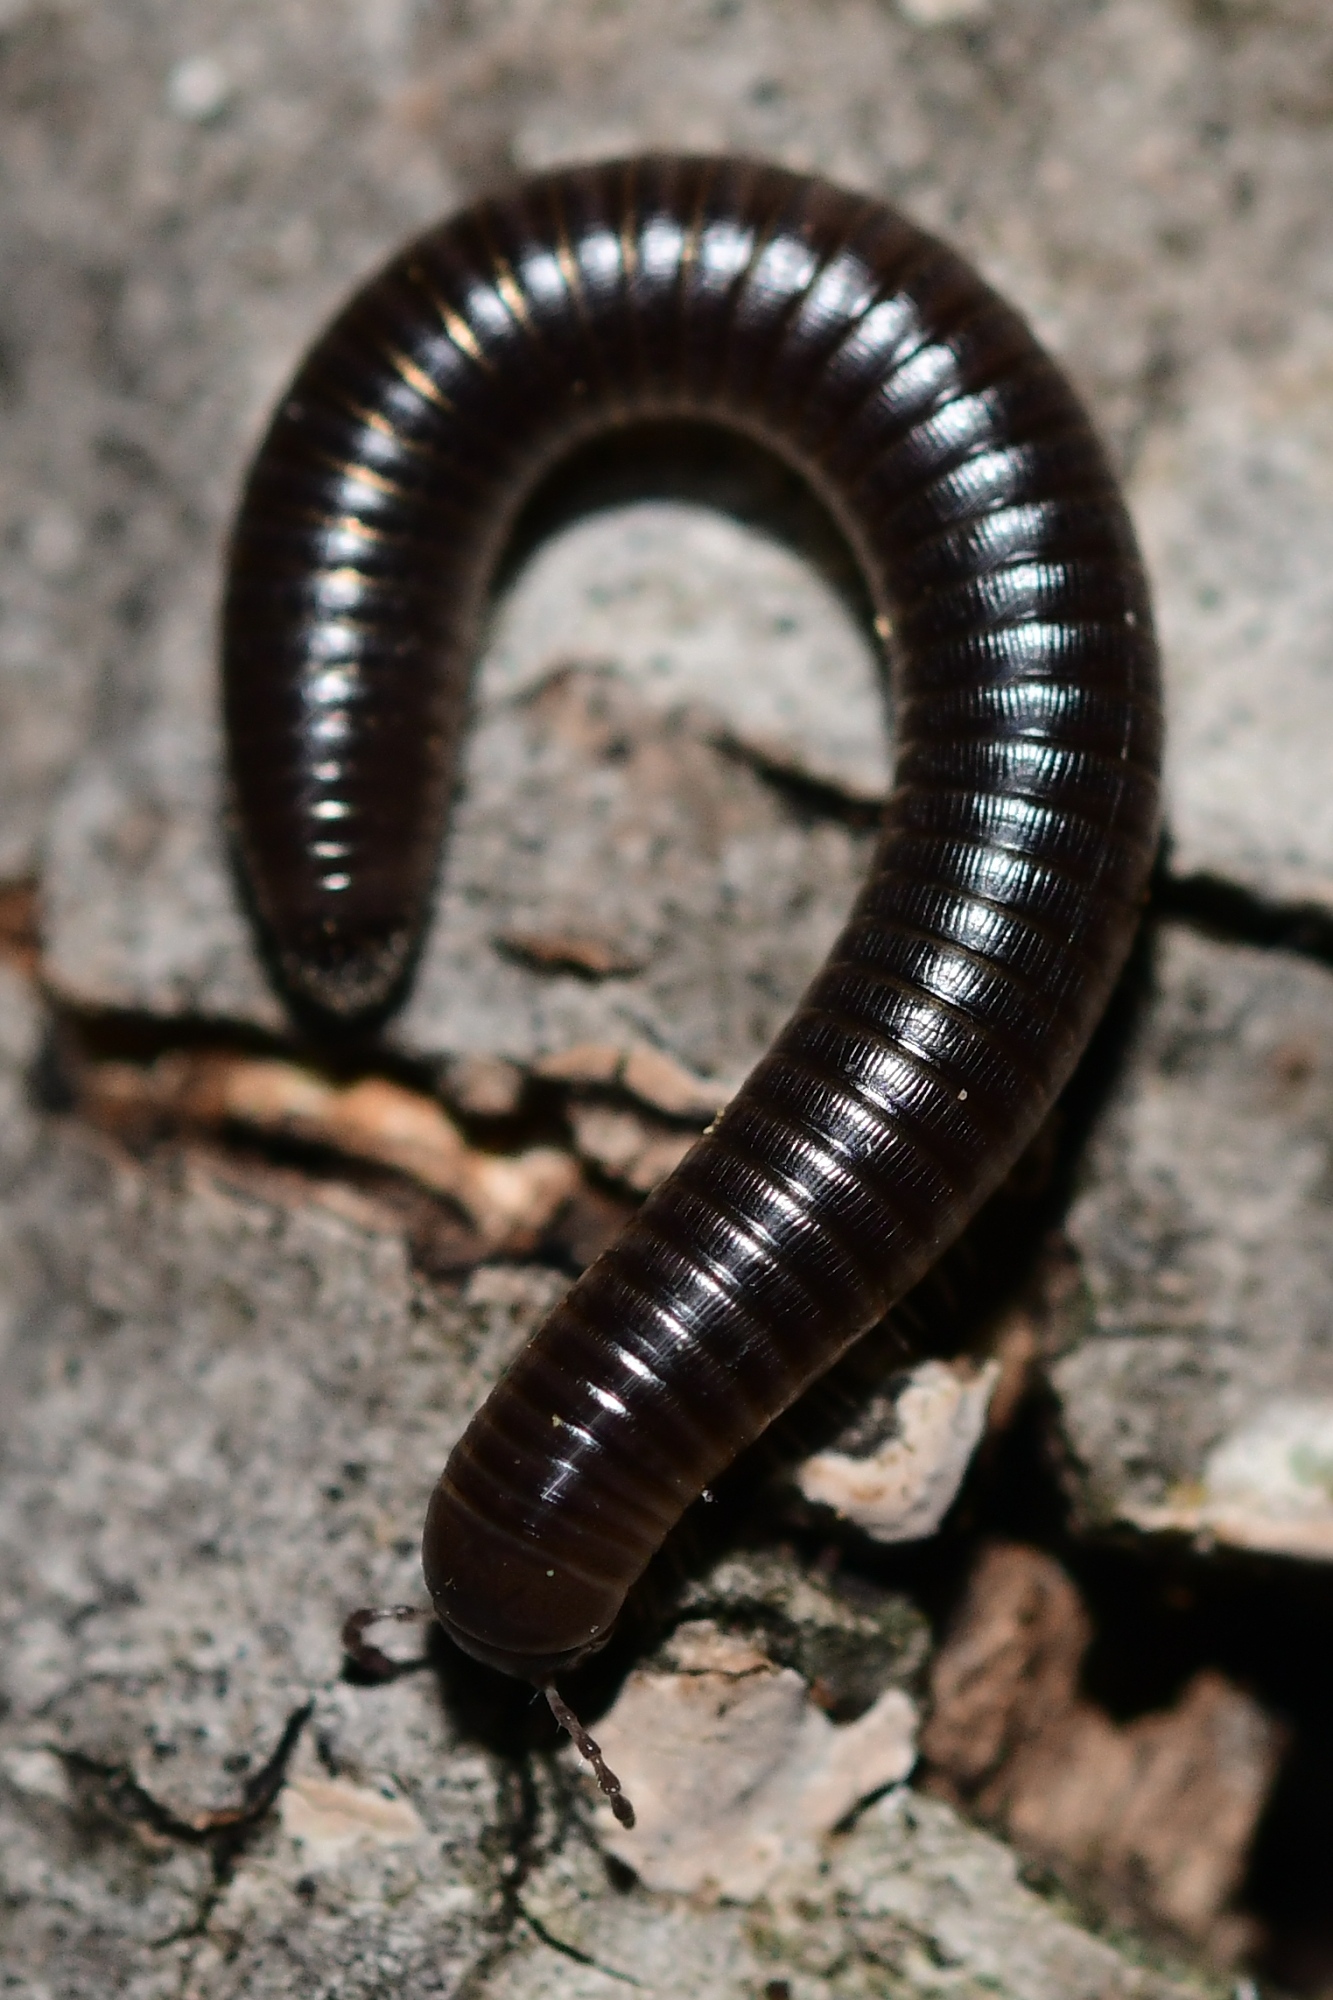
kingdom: Animalia
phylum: Arthropoda
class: Diplopoda
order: Julida
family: Julidae
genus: Pachyiulus
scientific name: Pachyiulus flavipes
